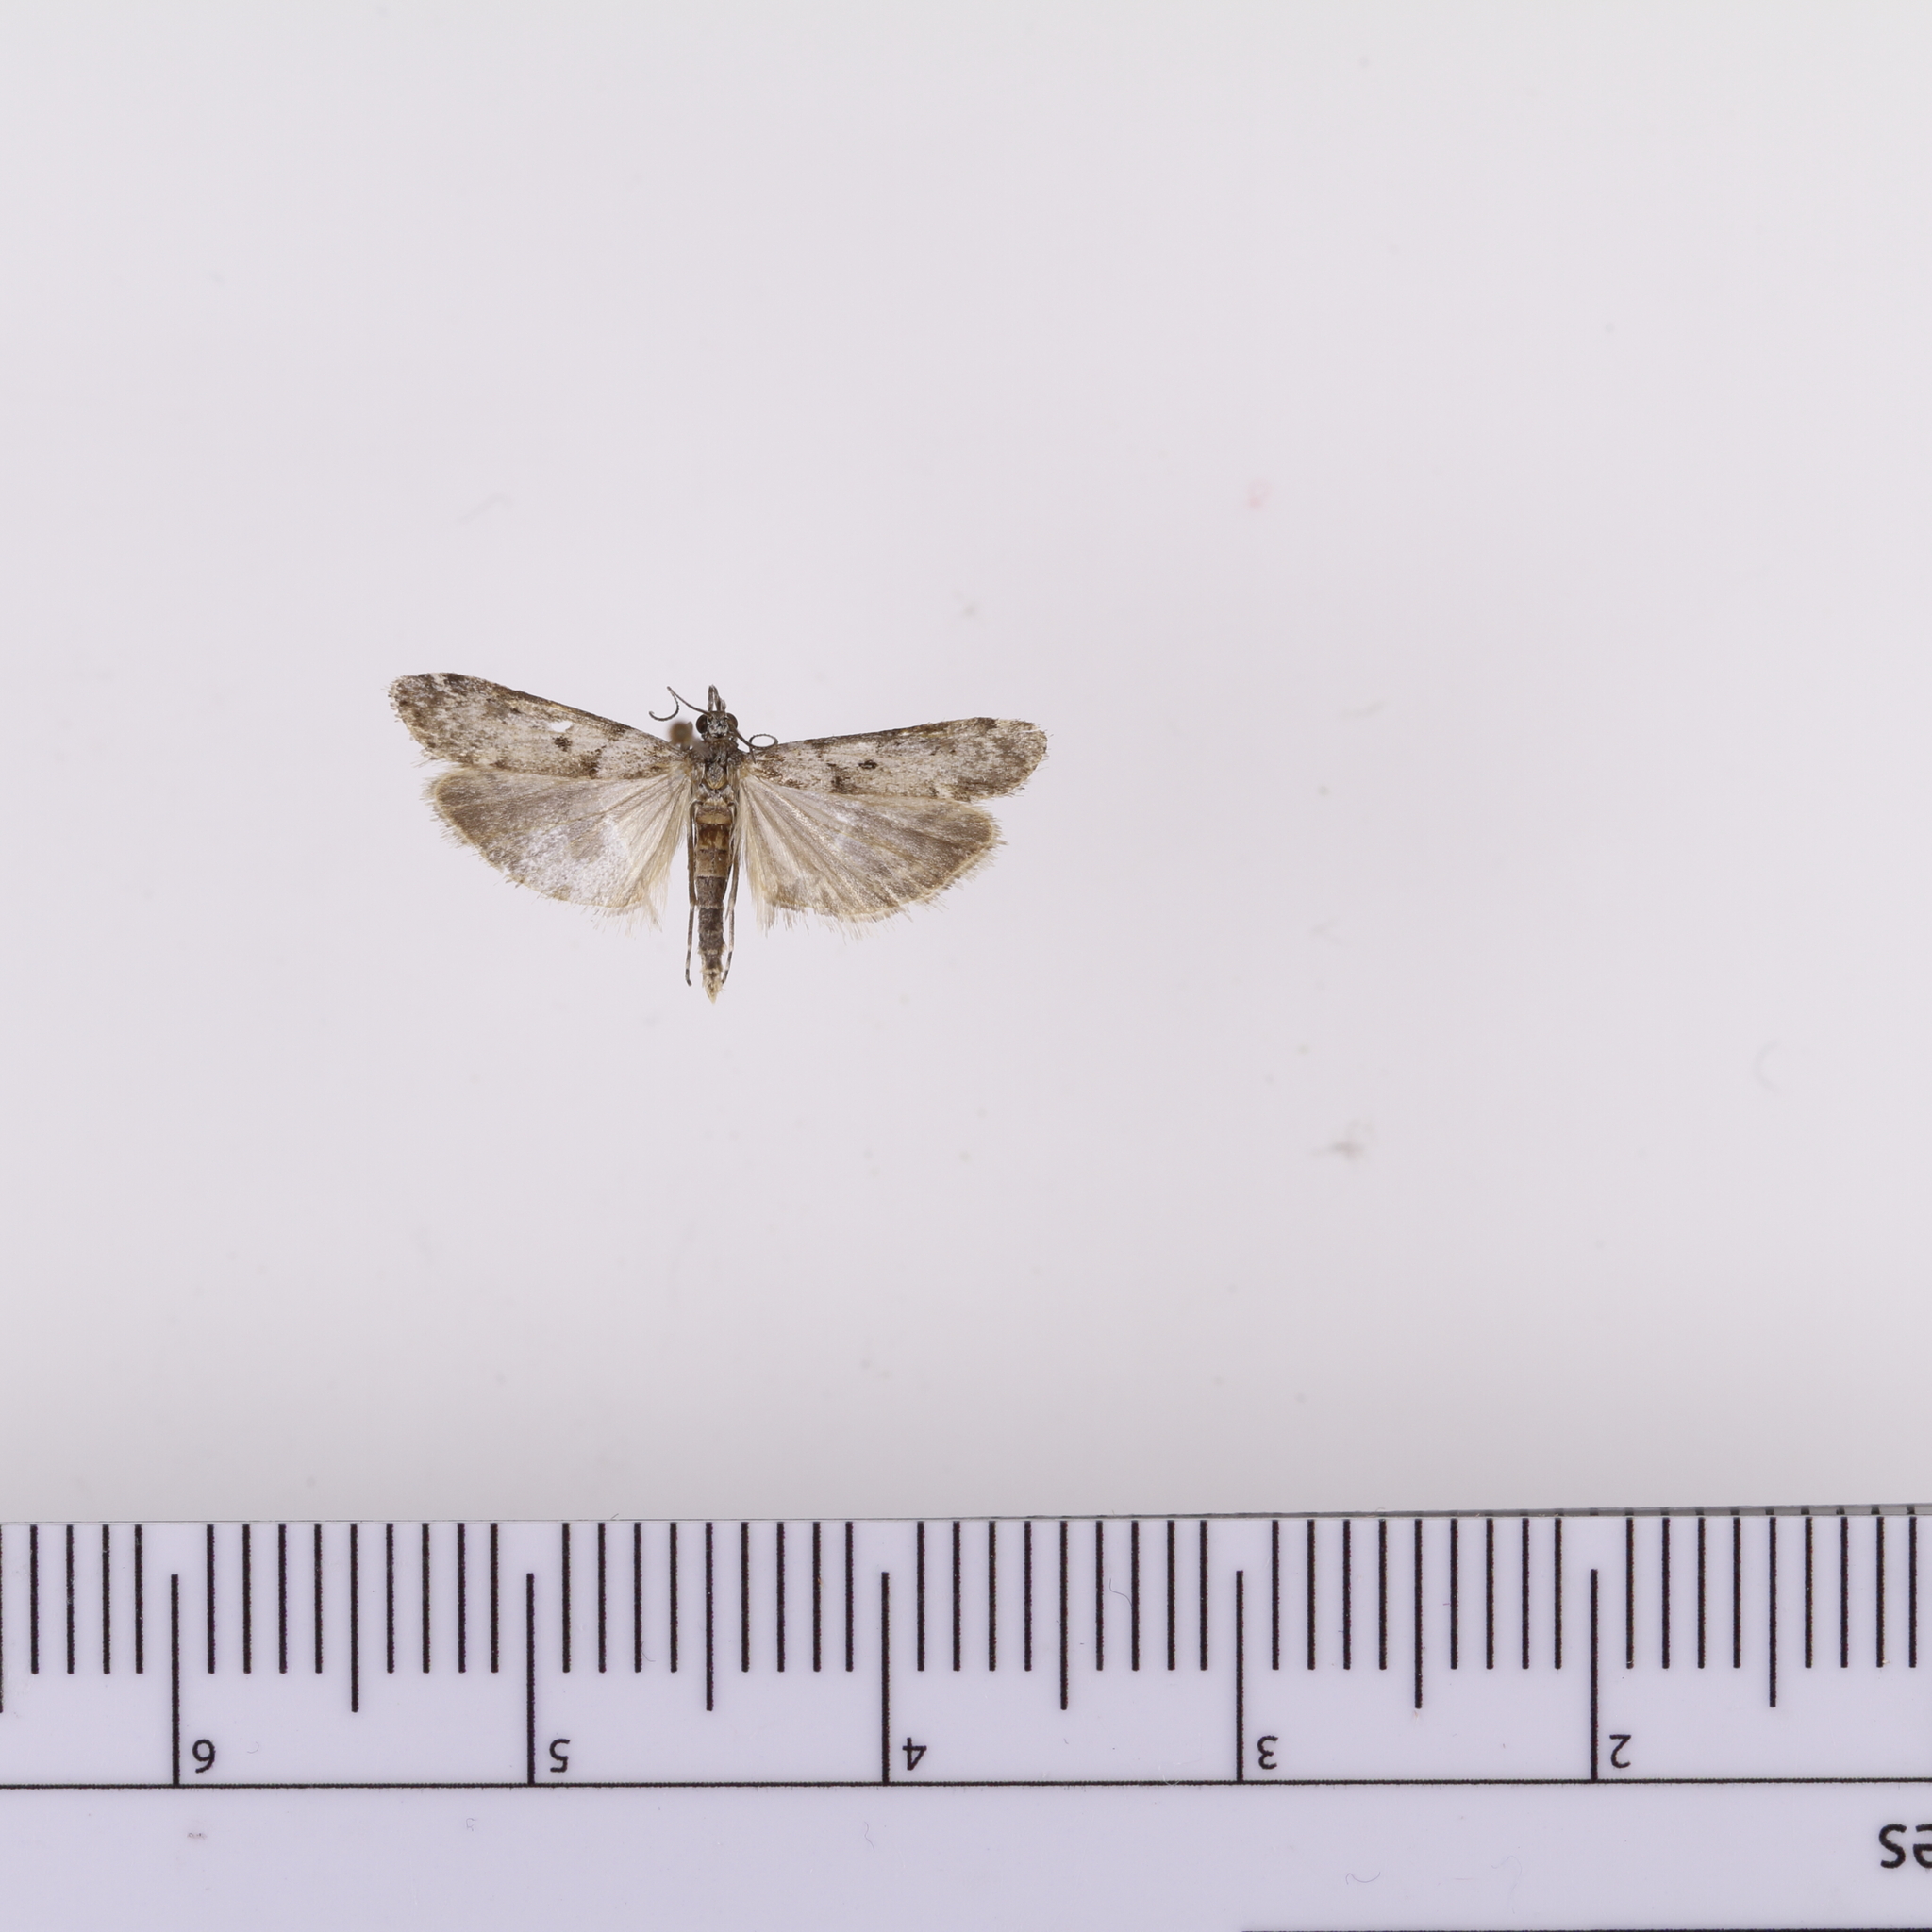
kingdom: Animalia
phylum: Arthropoda
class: Insecta
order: Lepidoptera
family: Crambidae
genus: Eudonia
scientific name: Eudonia leptalea
